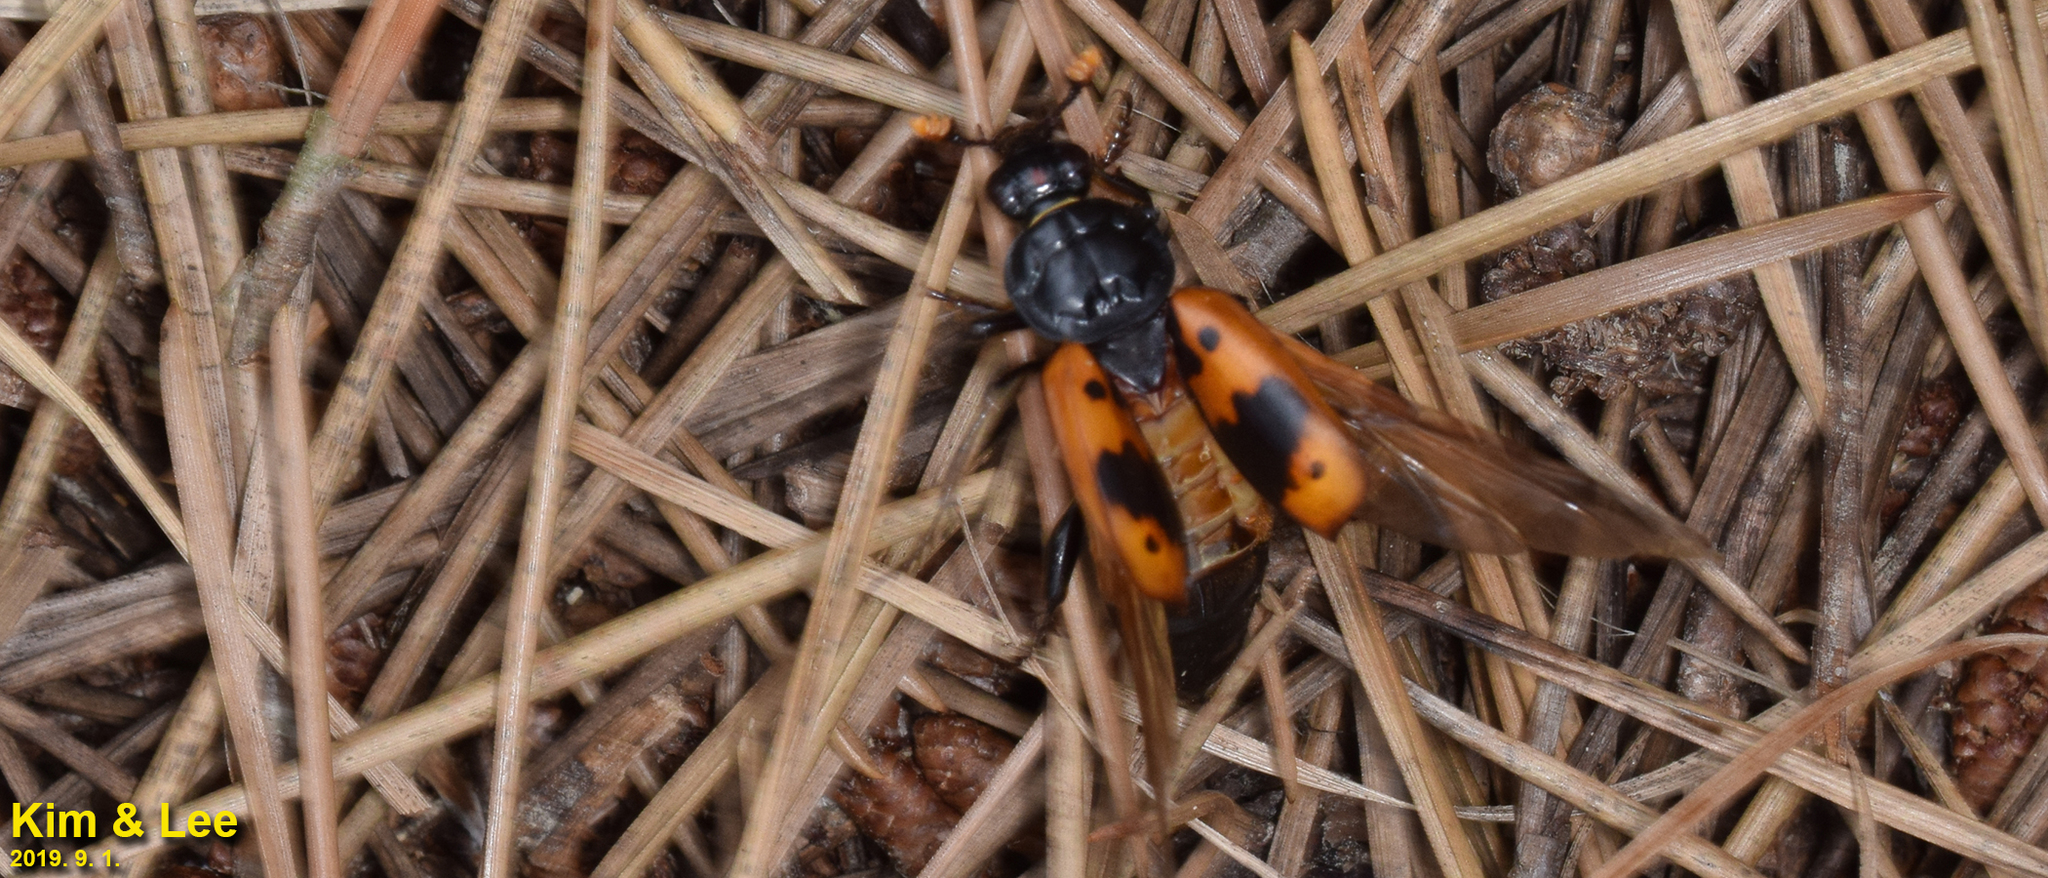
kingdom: Animalia
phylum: Arthropoda
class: Insecta
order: Coleoptera
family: Staphylinidae
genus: Nicrophorus
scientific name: Nicrophorus quadripunctatus
